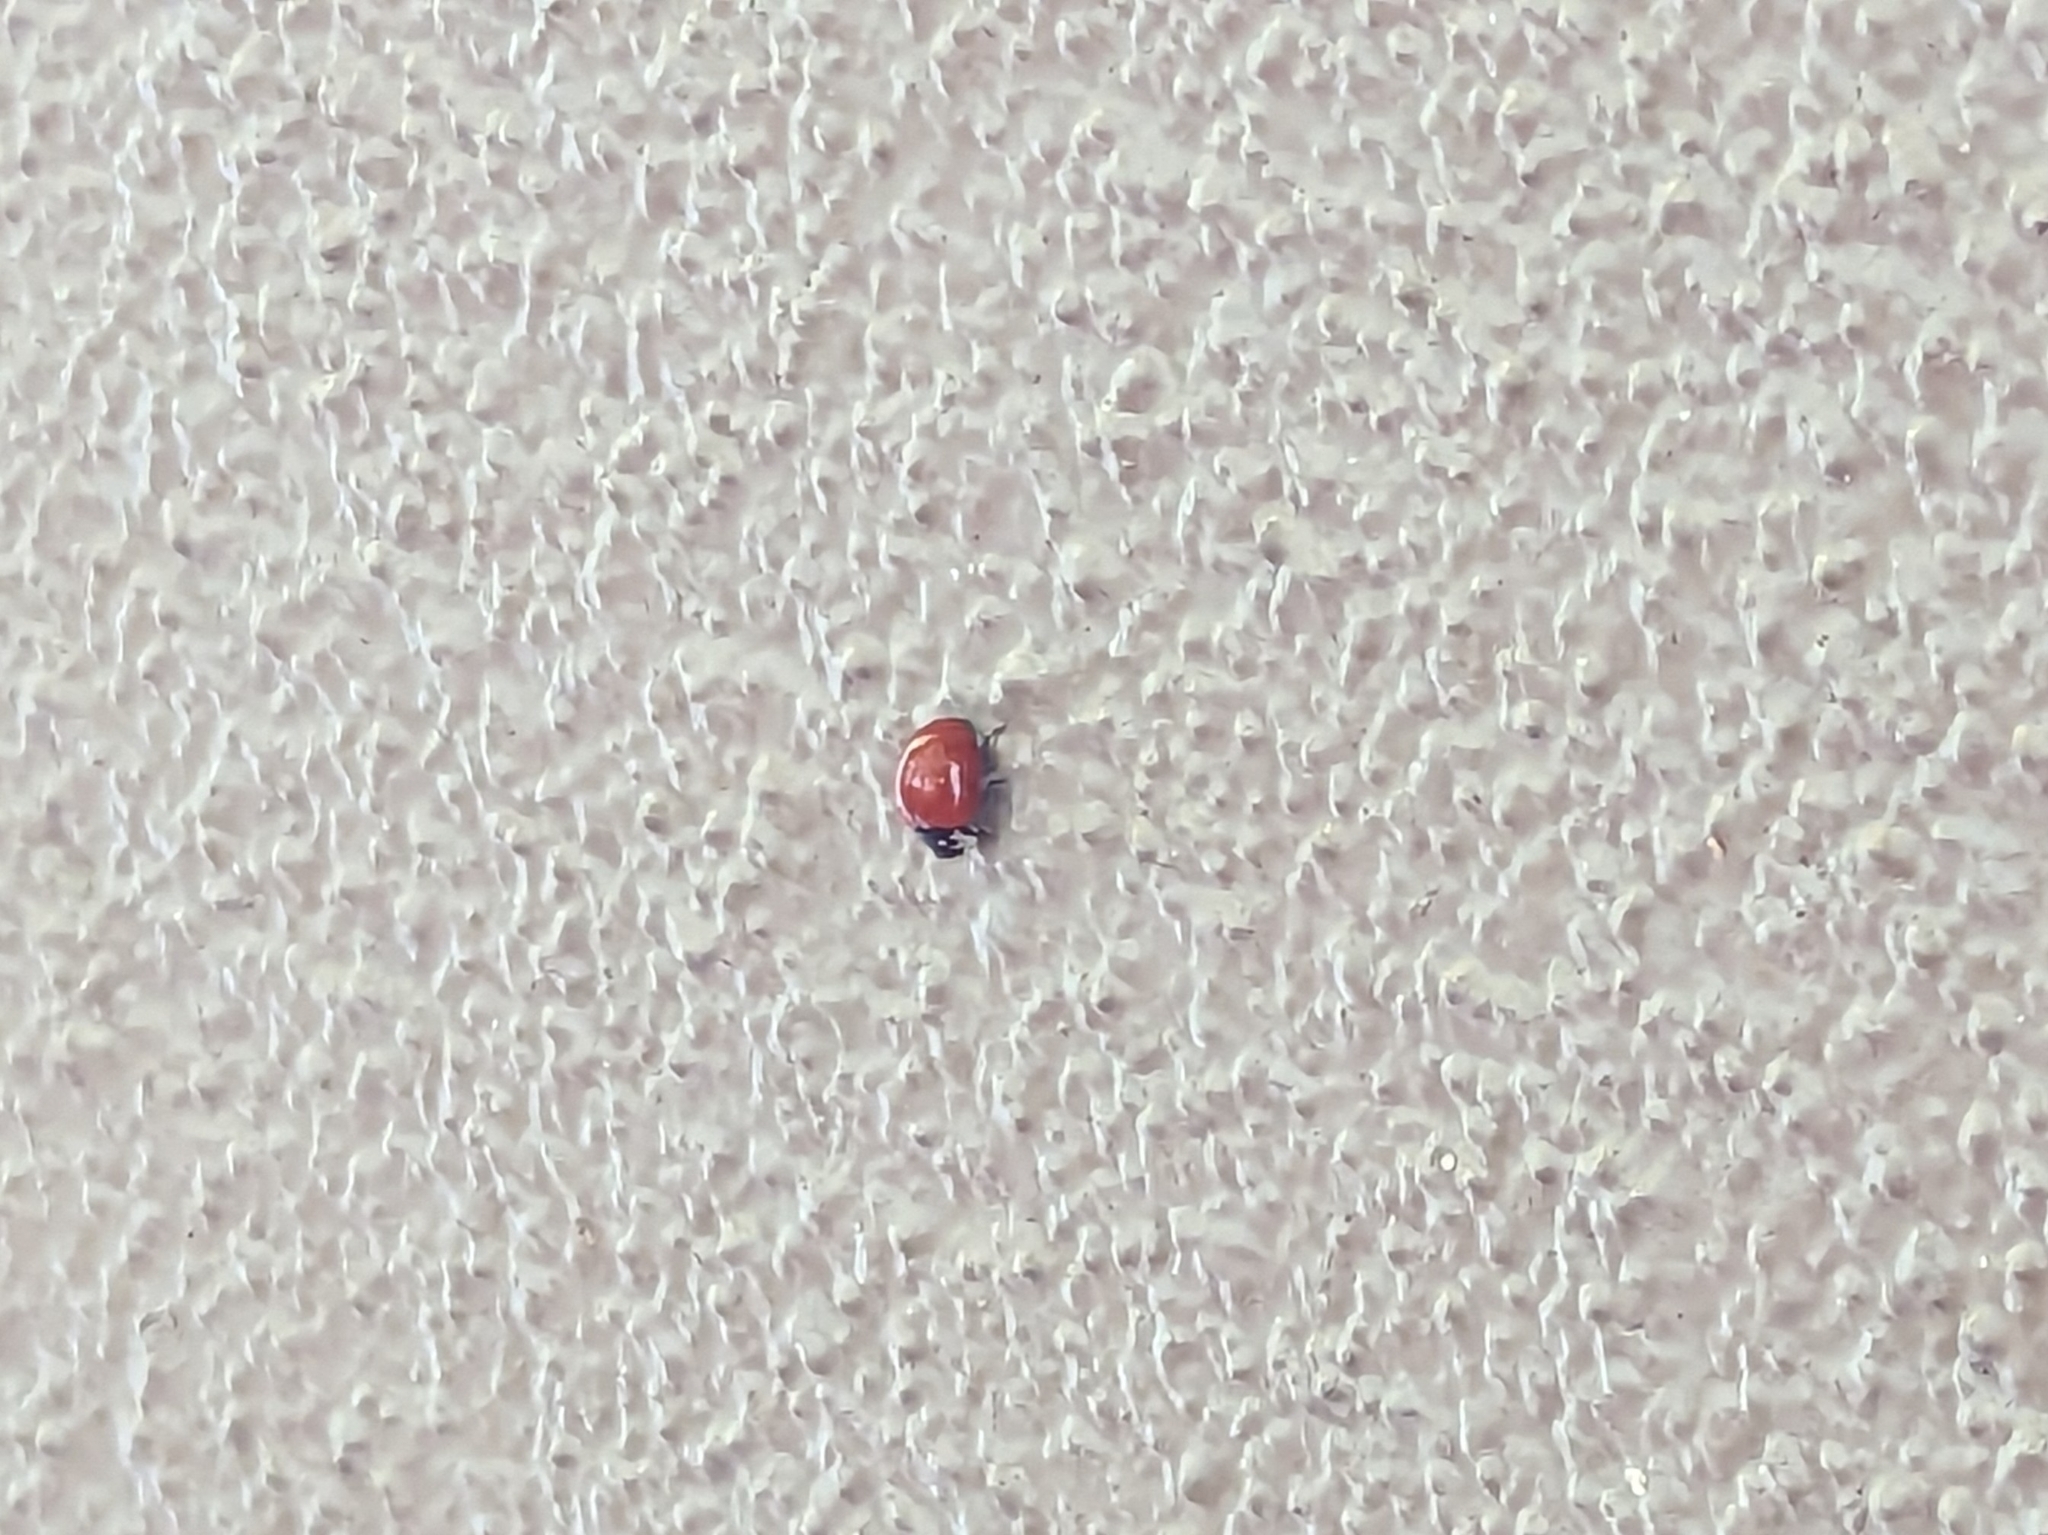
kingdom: Animalia
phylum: Arthropoda
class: Insecta
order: Coleoptera
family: Coccinellidae
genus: Cycloneda
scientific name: Cycloneda sanguinea
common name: Ladybird beetle
